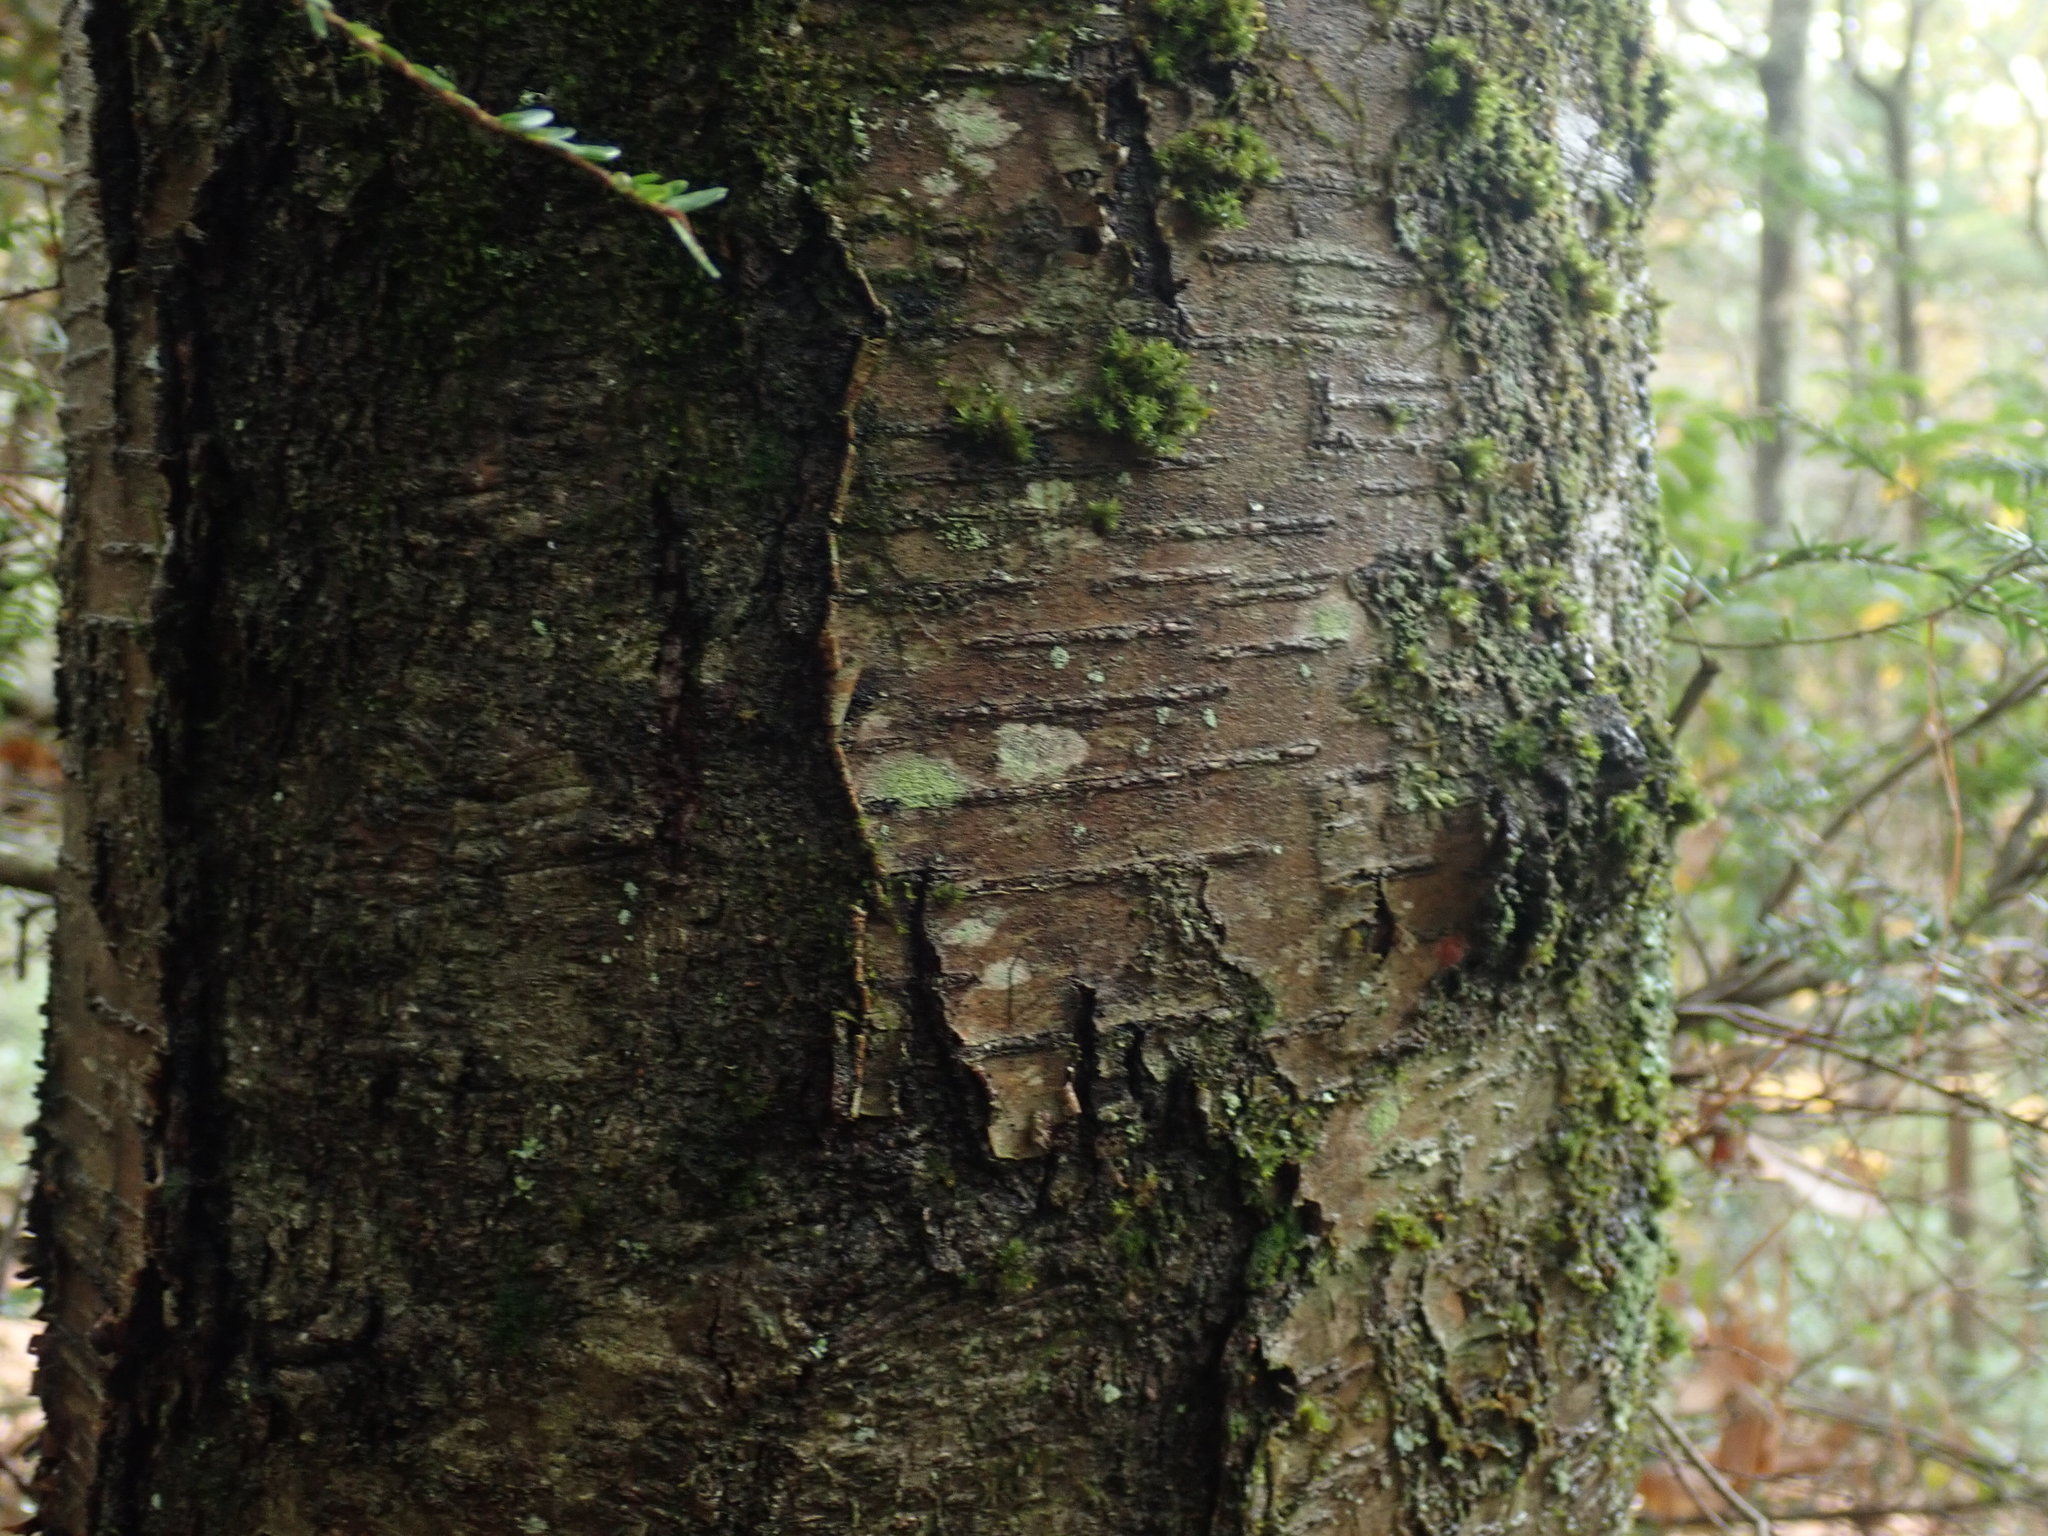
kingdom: Plantae
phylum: Tracheophyta
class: Magnoliopsida
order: Fagales
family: Betulaceae
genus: Betula
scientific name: Betula lenta
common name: Black birch
